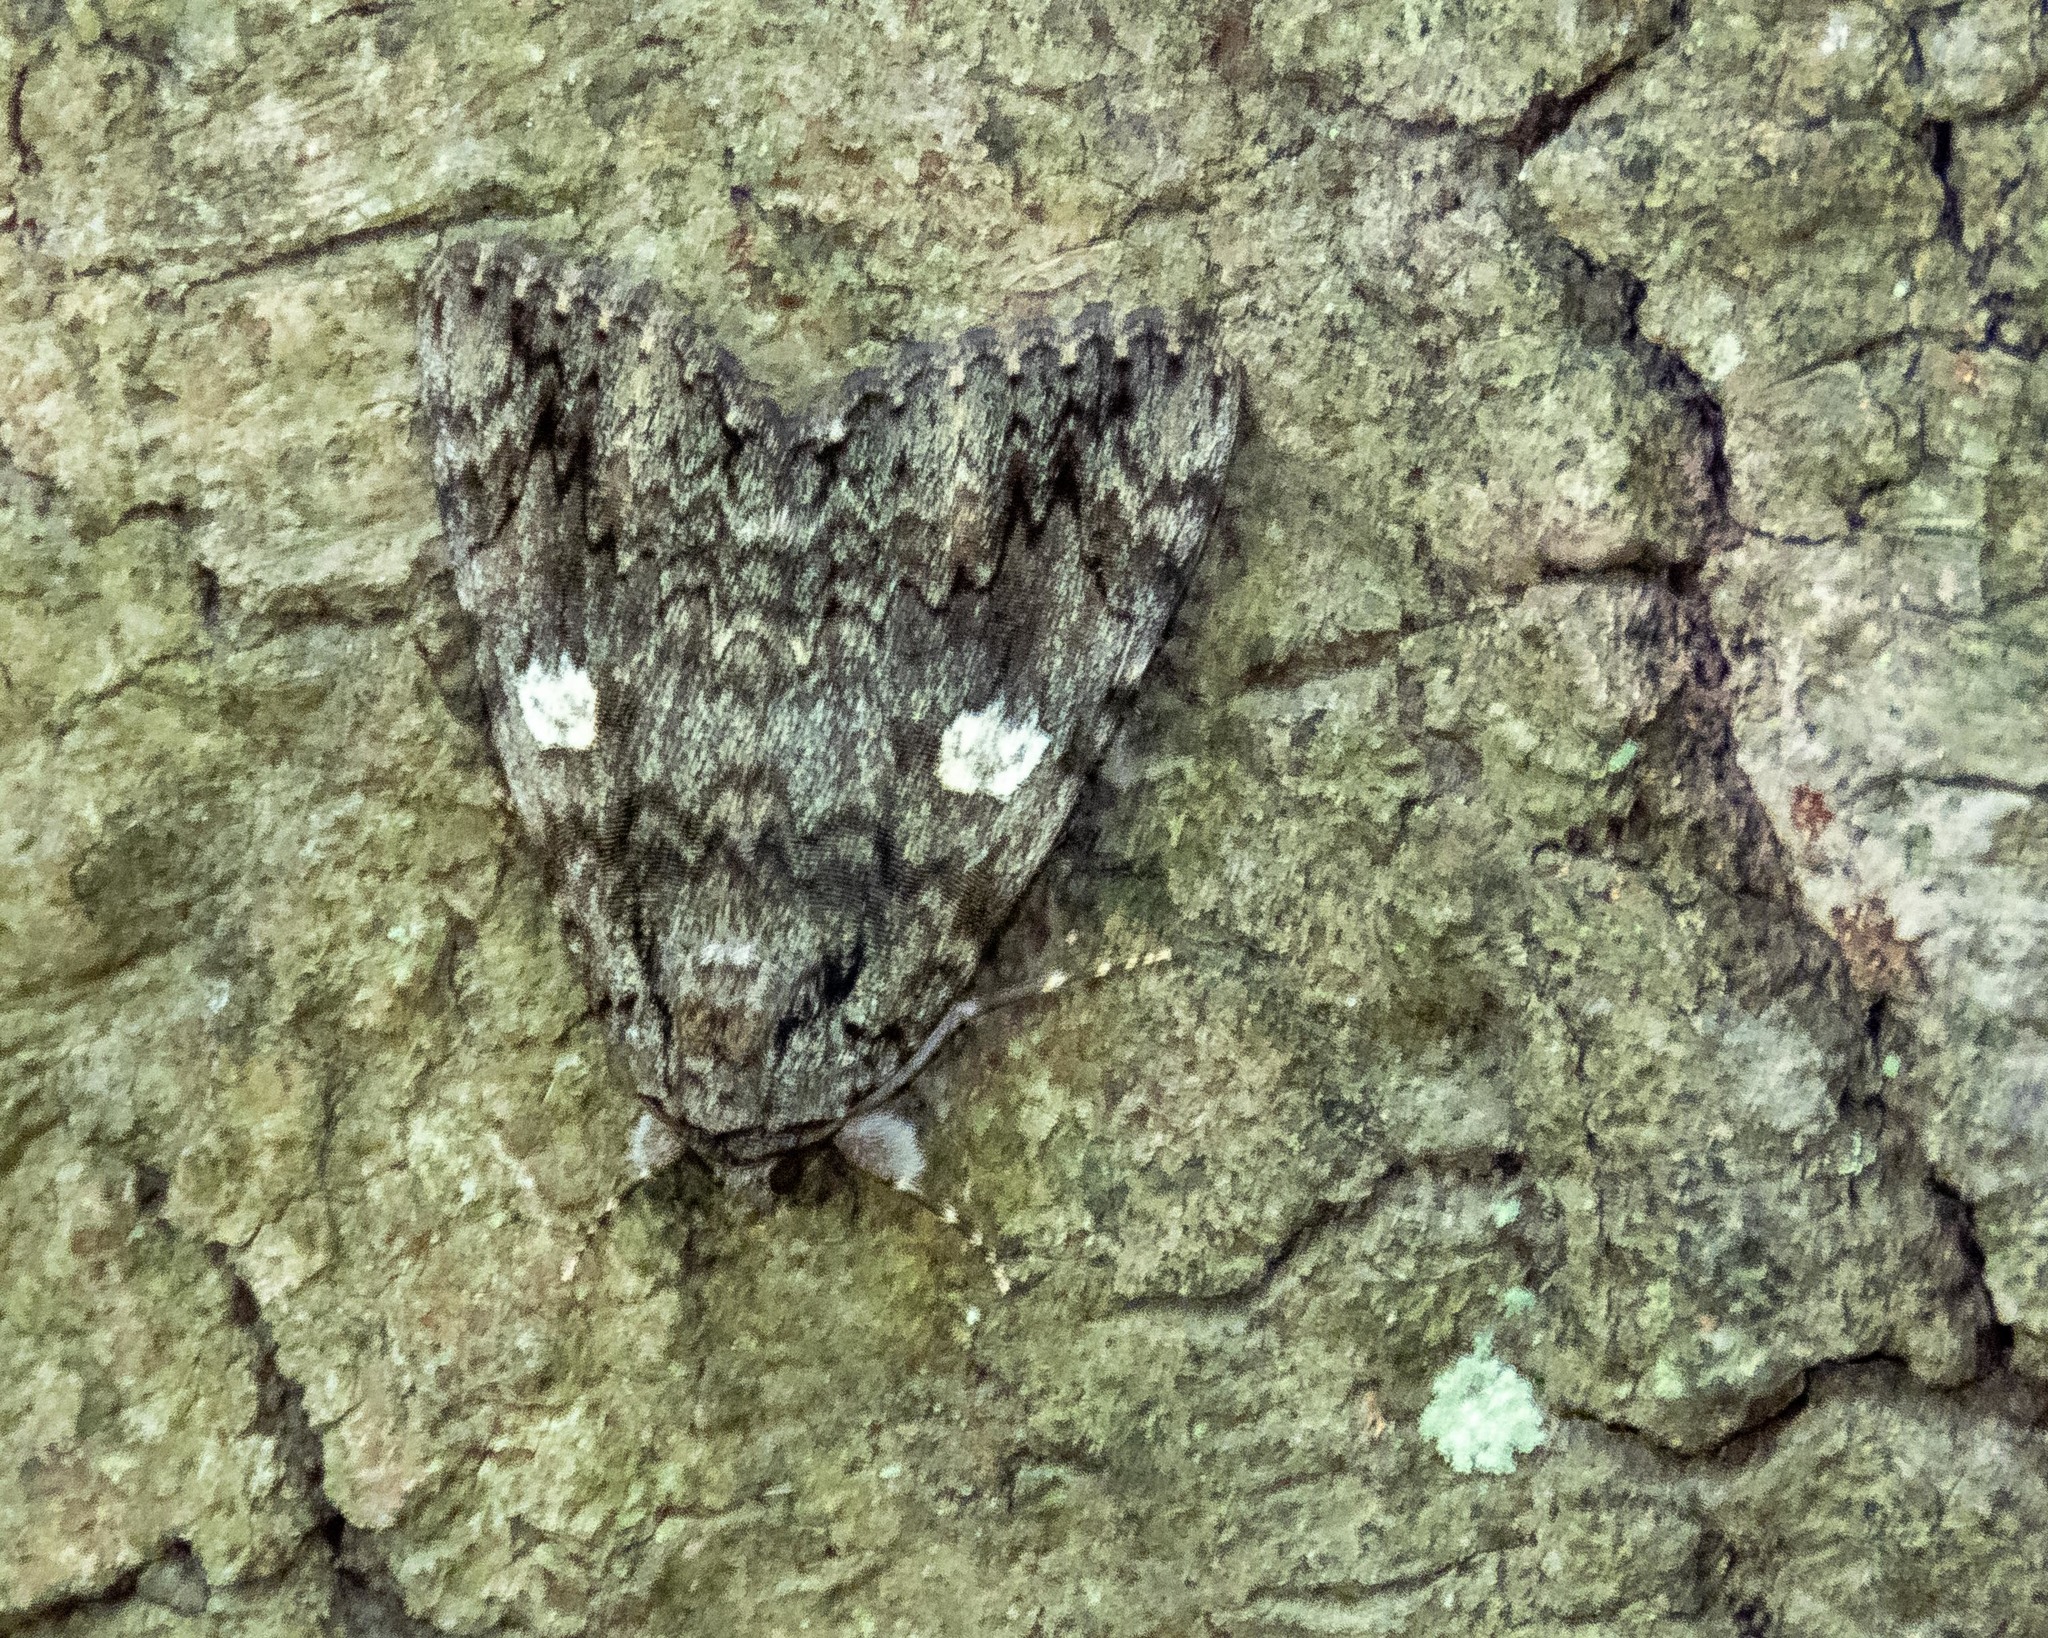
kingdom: Animalia
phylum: Arthropoda
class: Insecta
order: Lepidoptera
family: Erebidae
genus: Catocala
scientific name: Catocala ilia
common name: Ilia underwing
